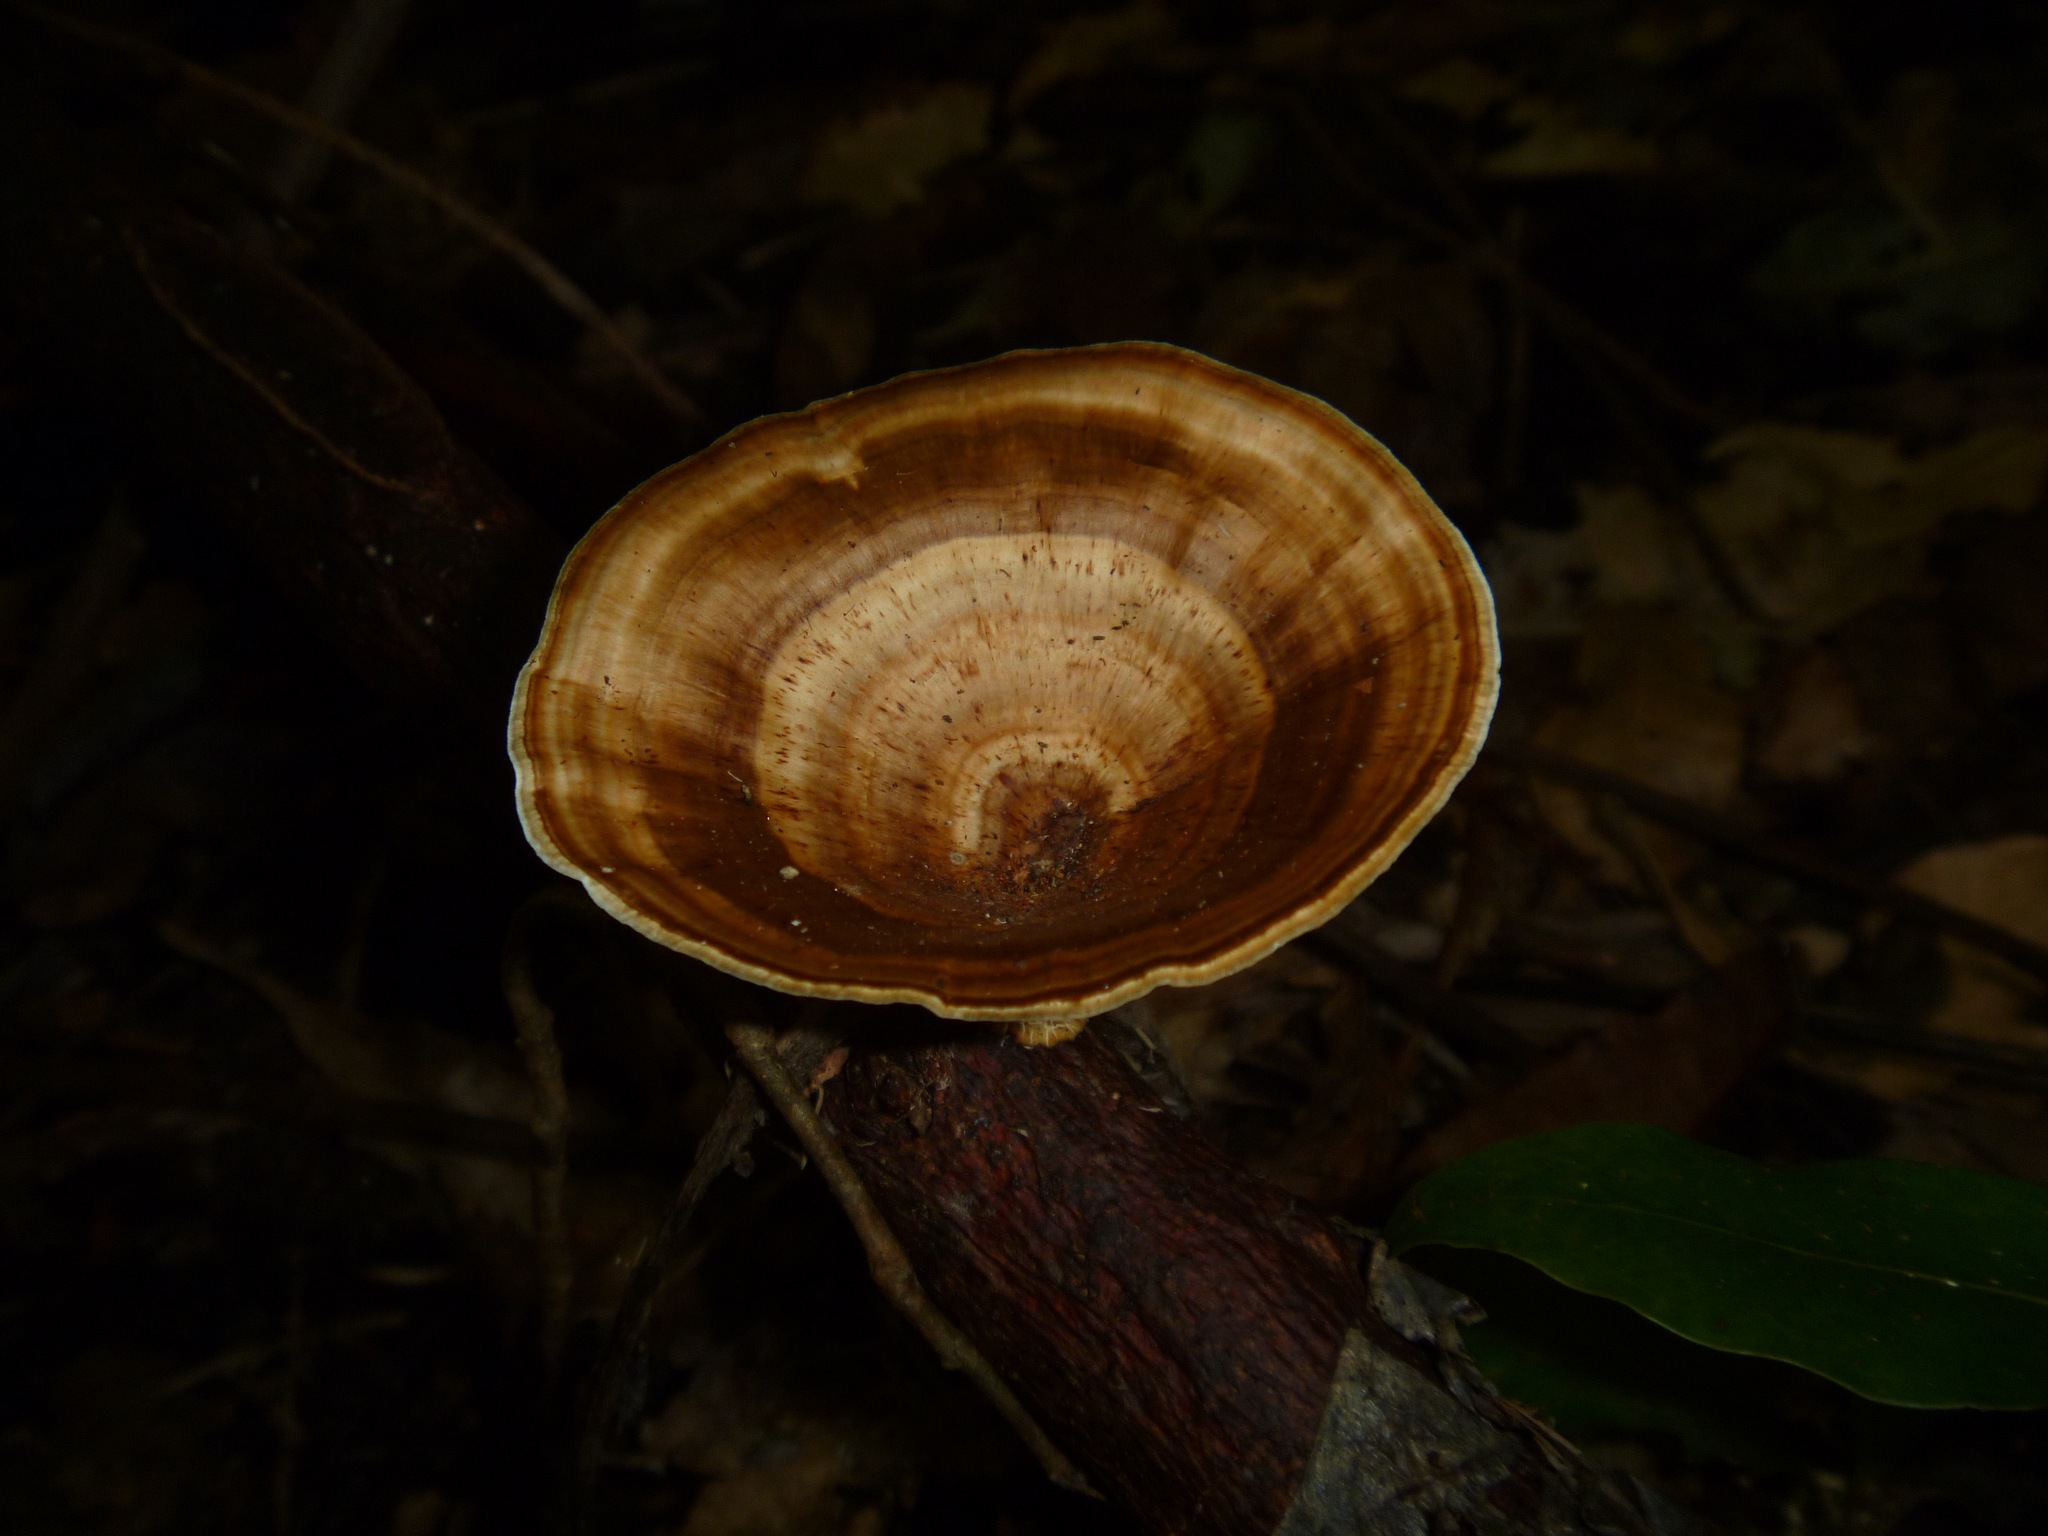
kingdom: Fungi
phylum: Basidiomycota
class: Agaricomycetes
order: Polyporales
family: Polyporaceae
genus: Microporus
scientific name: Microporus xanthopus
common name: Yellow-stemmed micropore
